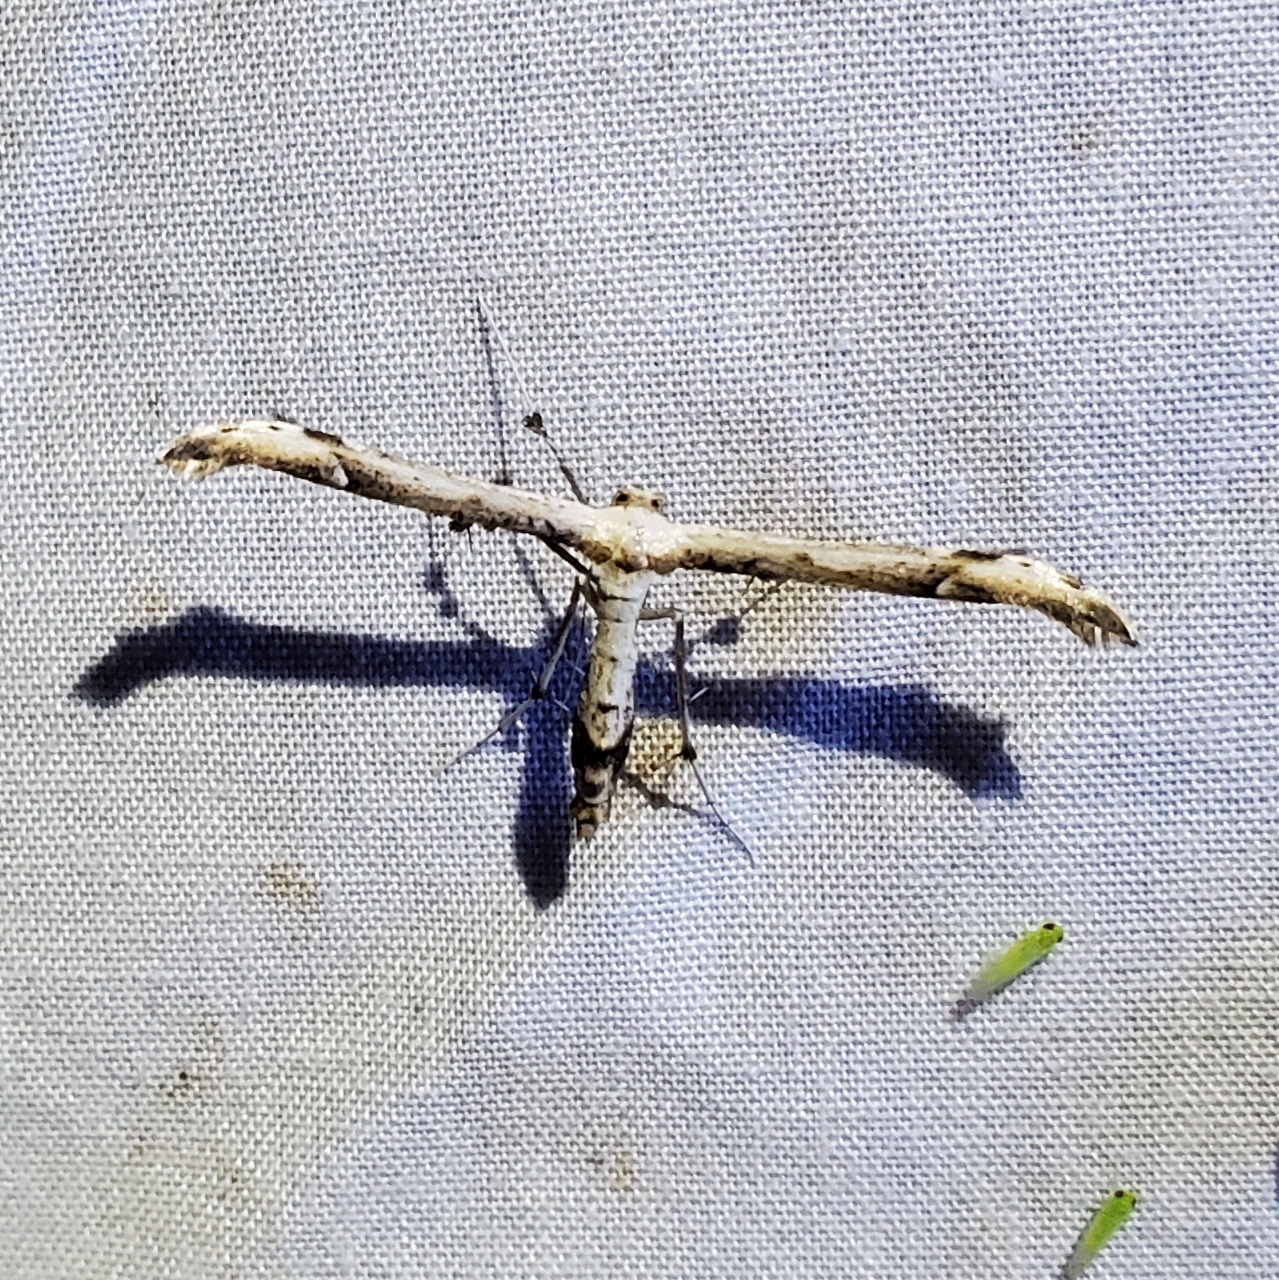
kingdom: Animalia
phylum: Arthropoda
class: Insecta
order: Lepidoptera
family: Pterophoridae
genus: Oidaematophorus
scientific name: Oidaematophorus eupatorii
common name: Eupatorium plume moth
